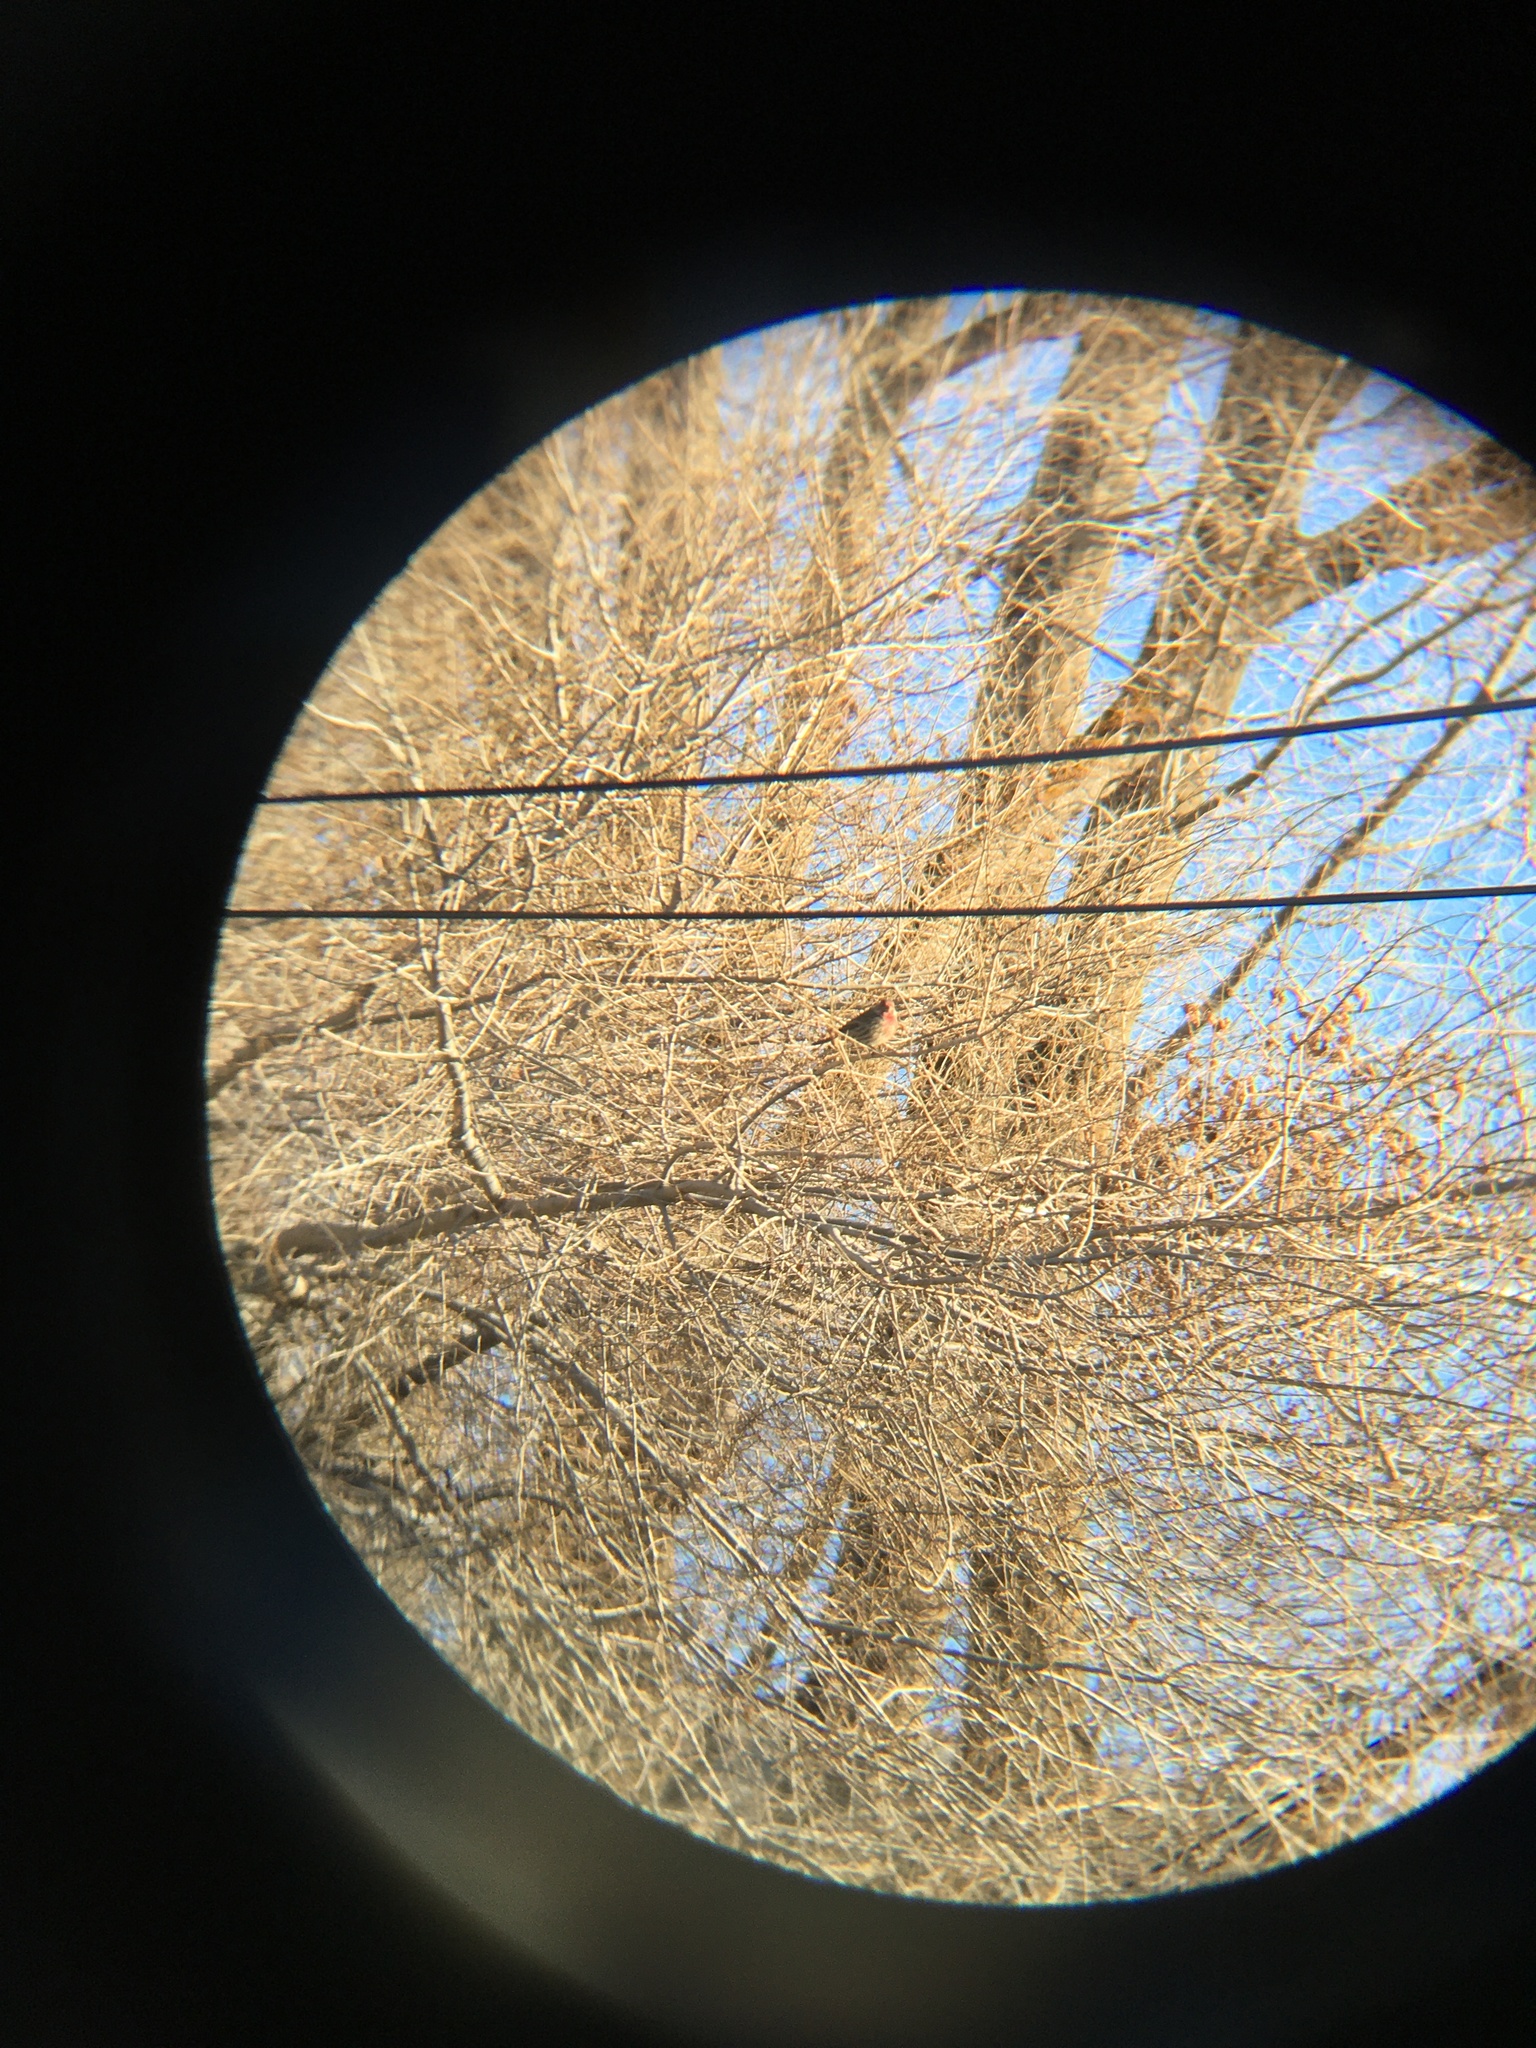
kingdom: Animalia
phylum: Chordata
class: Aves
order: Passeriformes
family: Fringillidae
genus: Haemorhous
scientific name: Haemorhous mexicanus
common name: House finch
